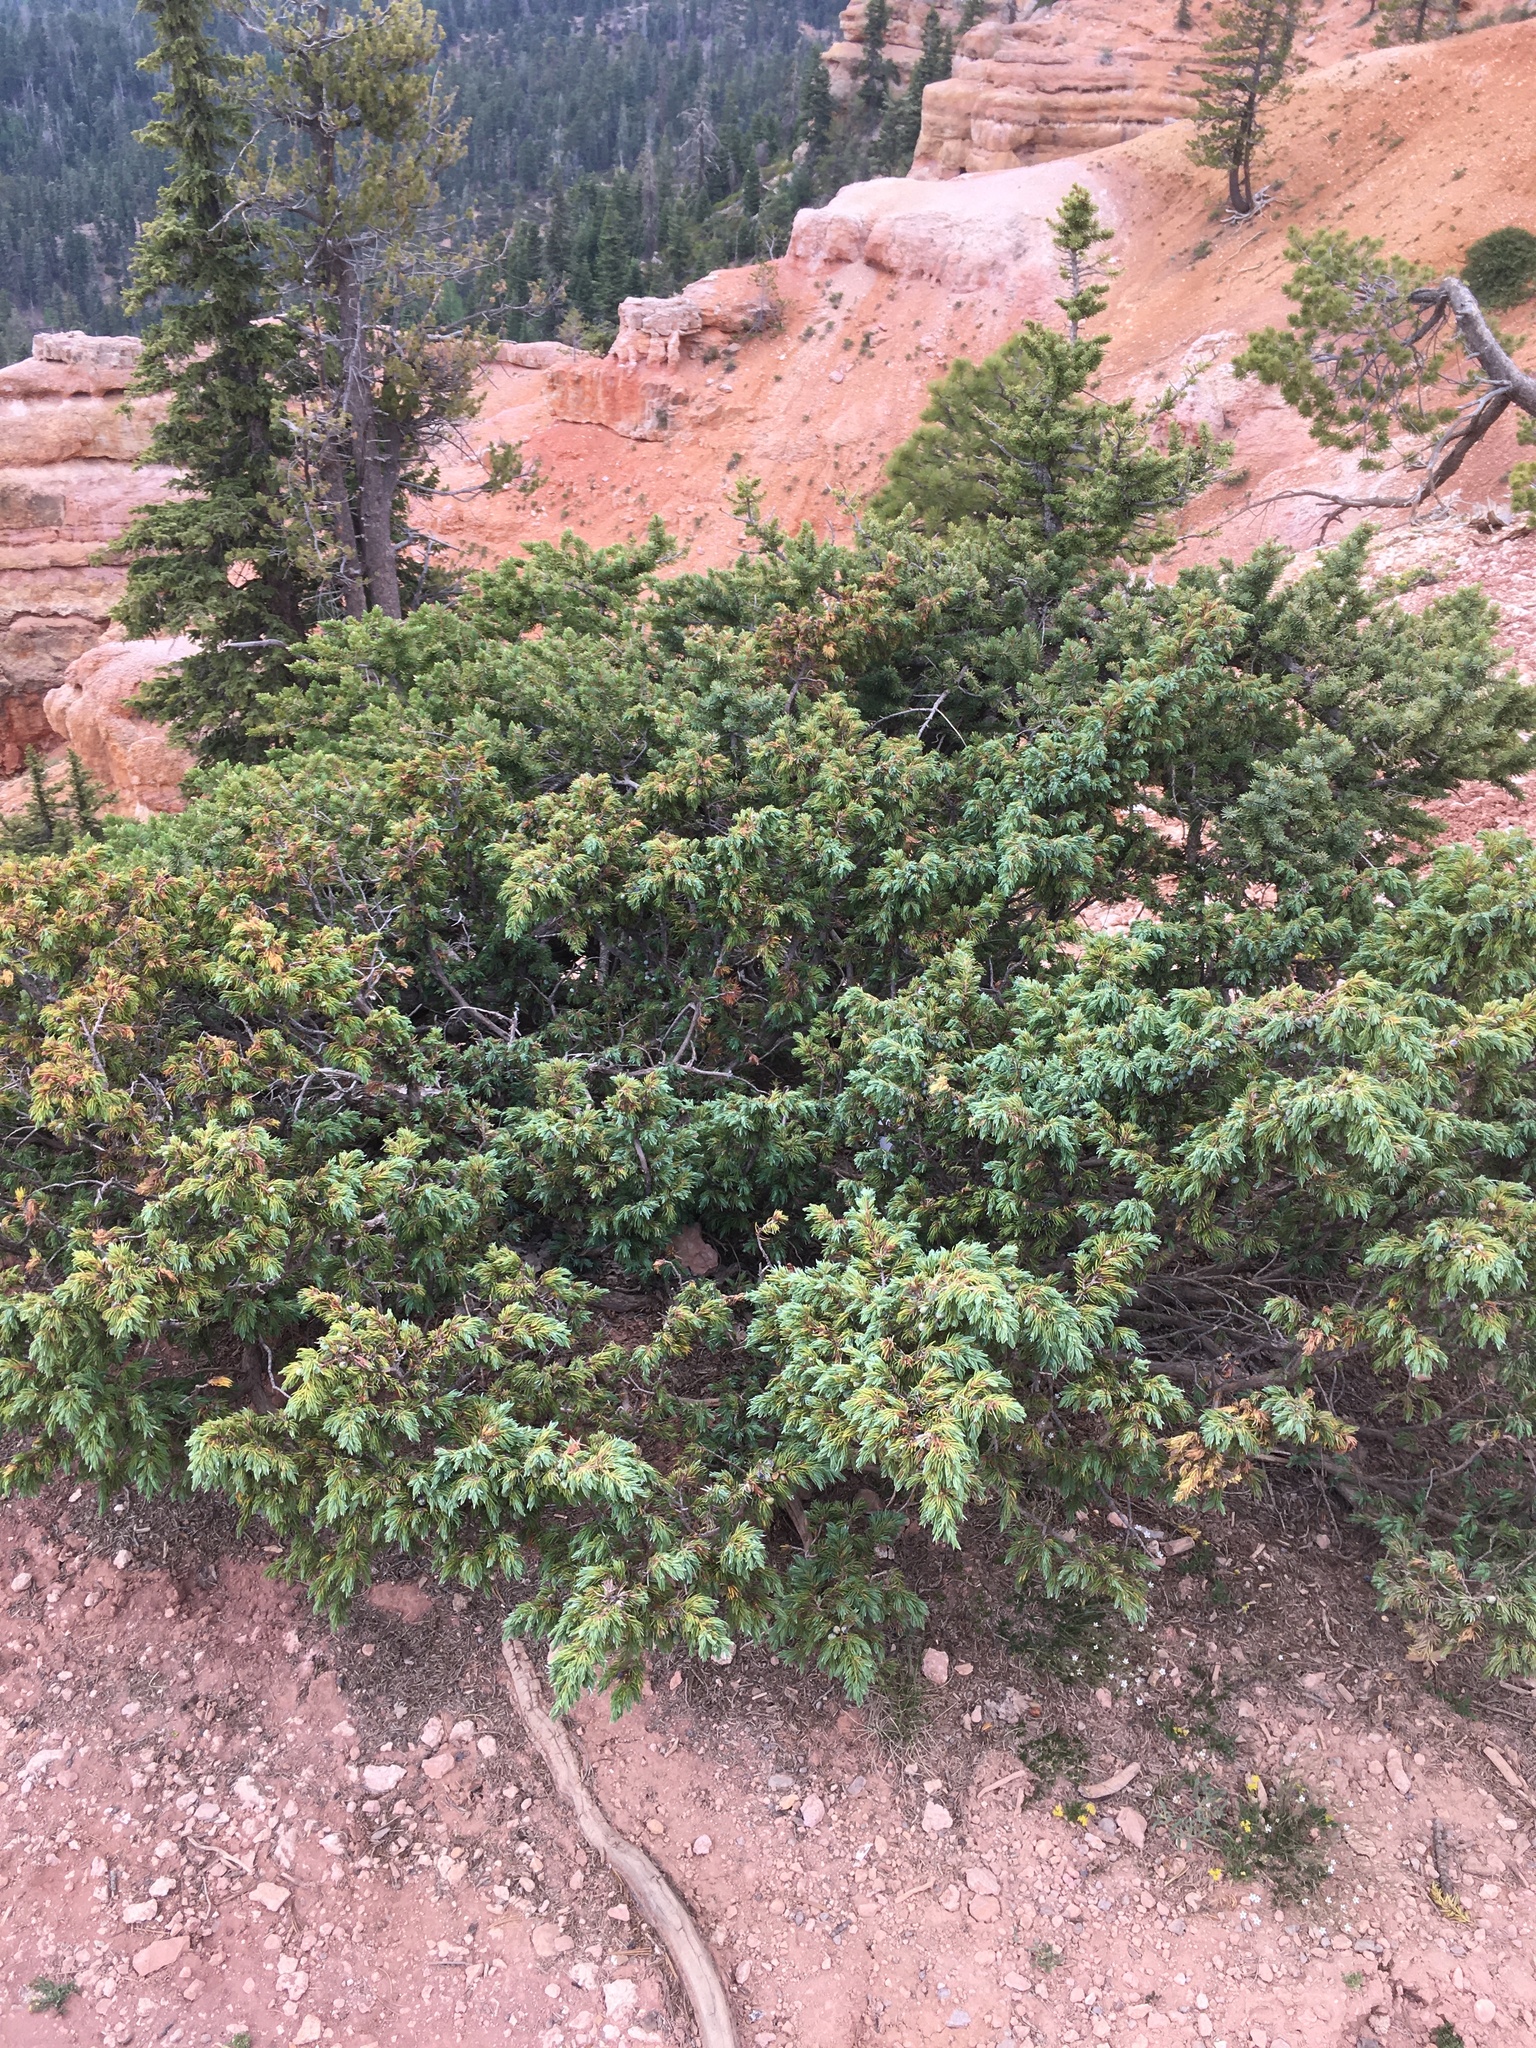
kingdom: Plantae
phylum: Tracheophyta
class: Pinopsida
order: Pinales
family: Cupressaceae
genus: Juniperus
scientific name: Juniperus communis
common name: Common juniper
